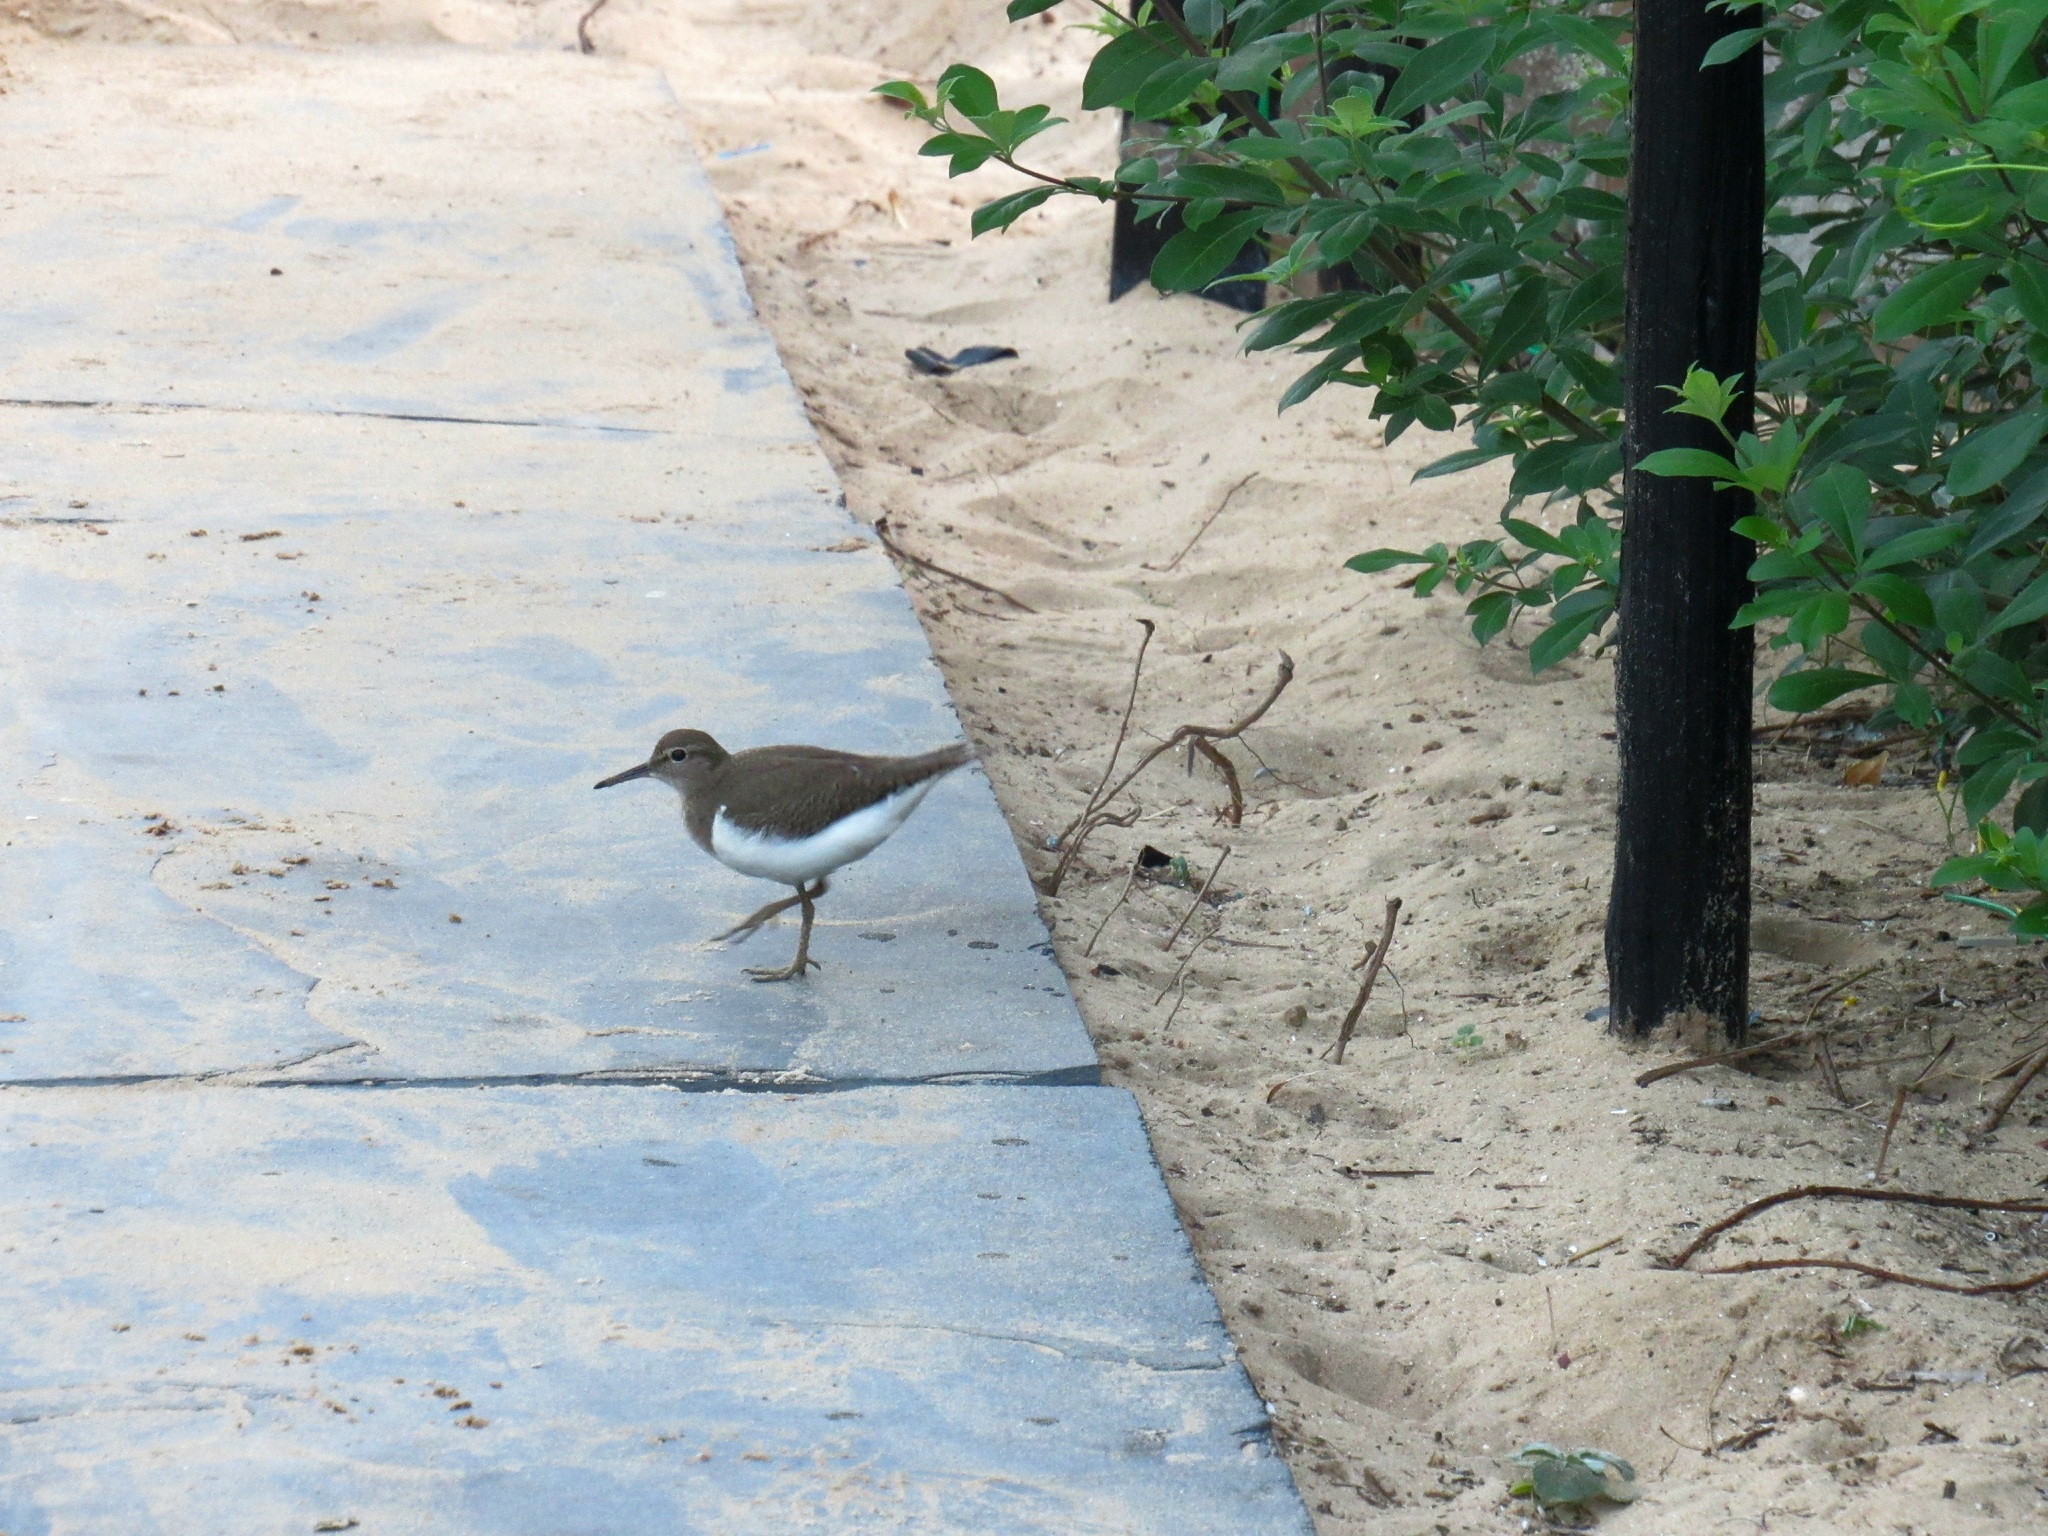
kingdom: Animalia
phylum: Chordata
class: Aves
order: Charadriiformes
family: Scolopacidae
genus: Actitis
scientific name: Actitis hypoleucos
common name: Common sandpiper
